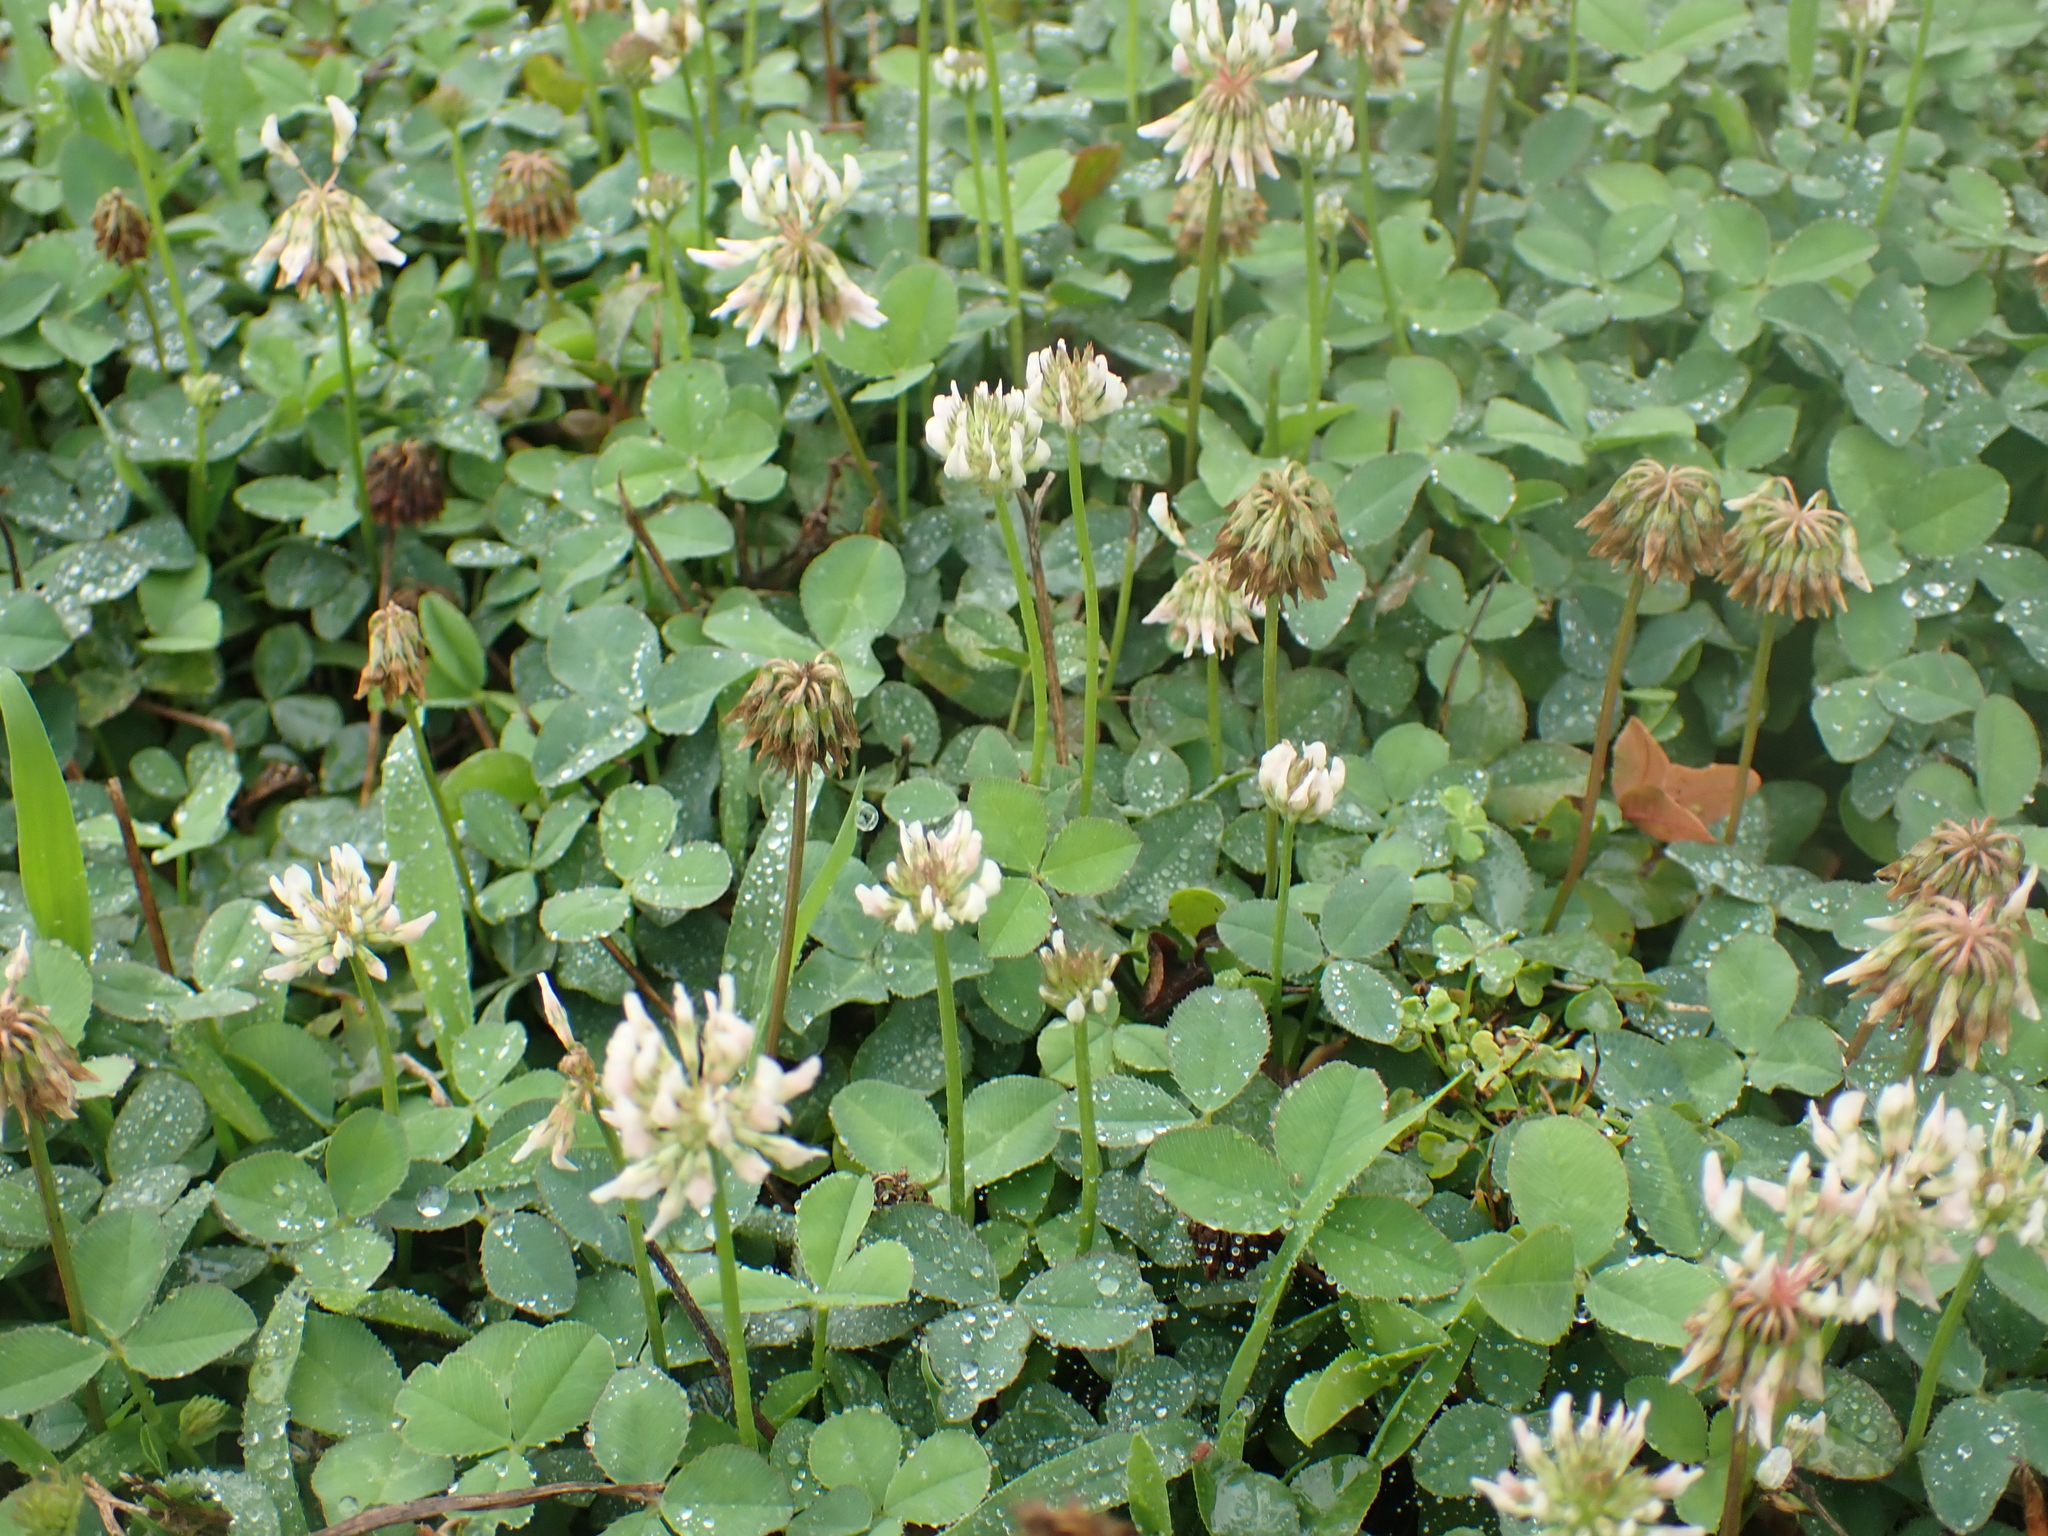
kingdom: Plantae
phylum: Tracheophyta
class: Magnoliopsida
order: Fabales
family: Fabaceae
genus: Trifolium
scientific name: Trifolium repens
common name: White clover
